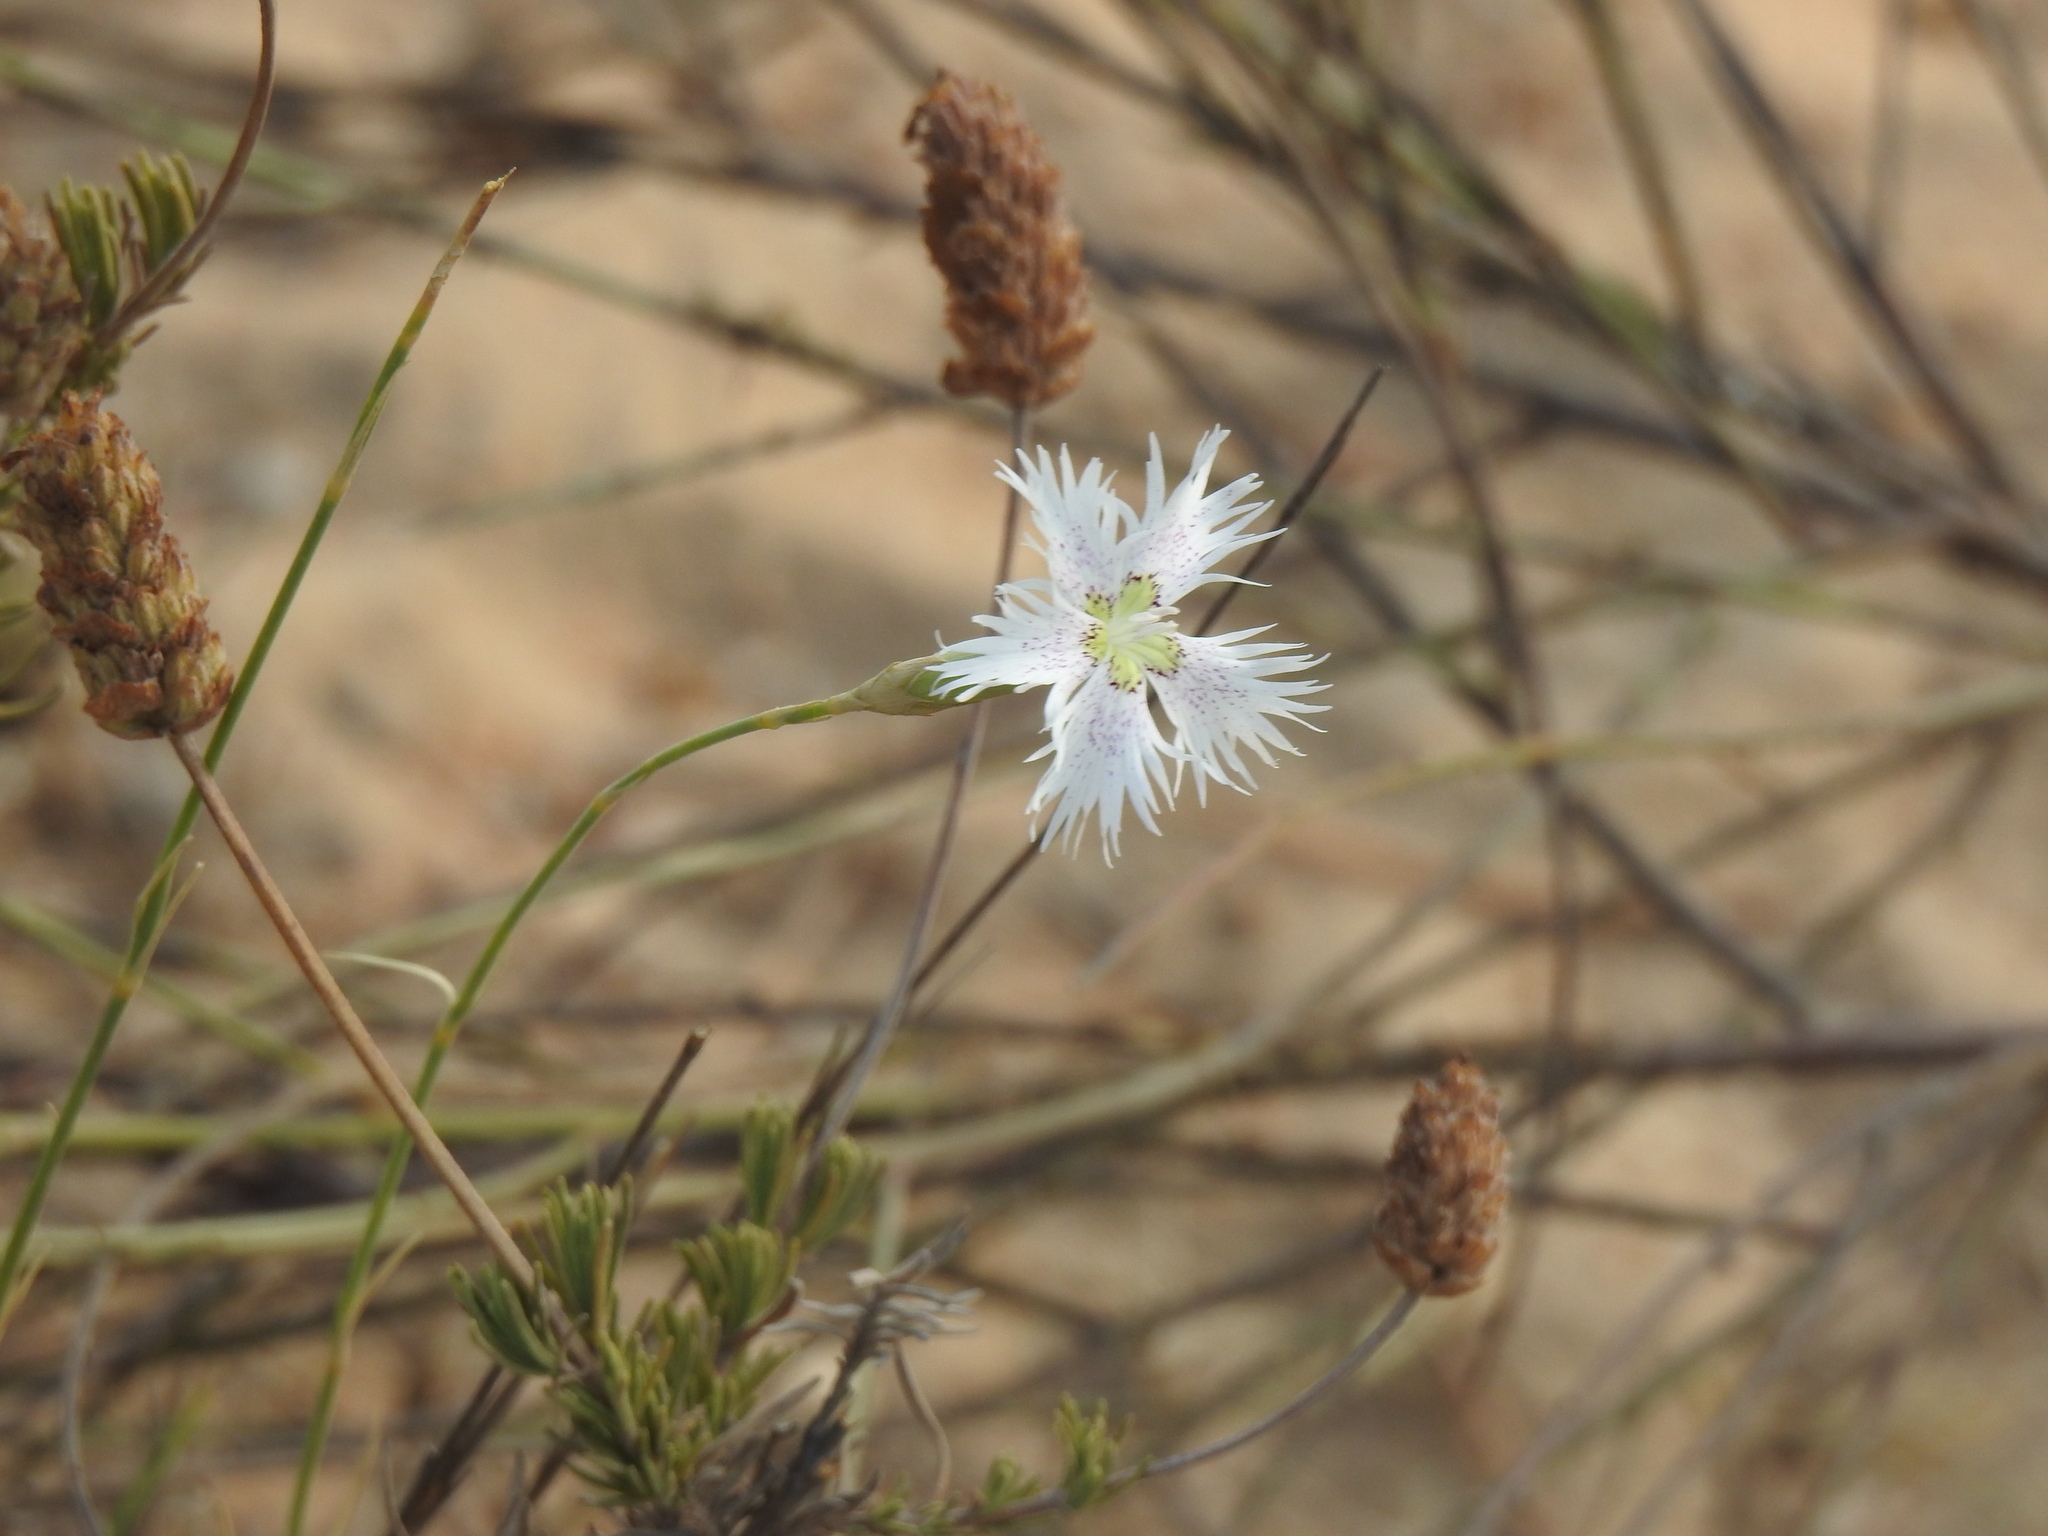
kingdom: Plantae
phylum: Tracheophyta
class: Magnoliopsida
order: Caryophyllales
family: Caryophyllaceae
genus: Dianthus
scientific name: Dianthus broteri
